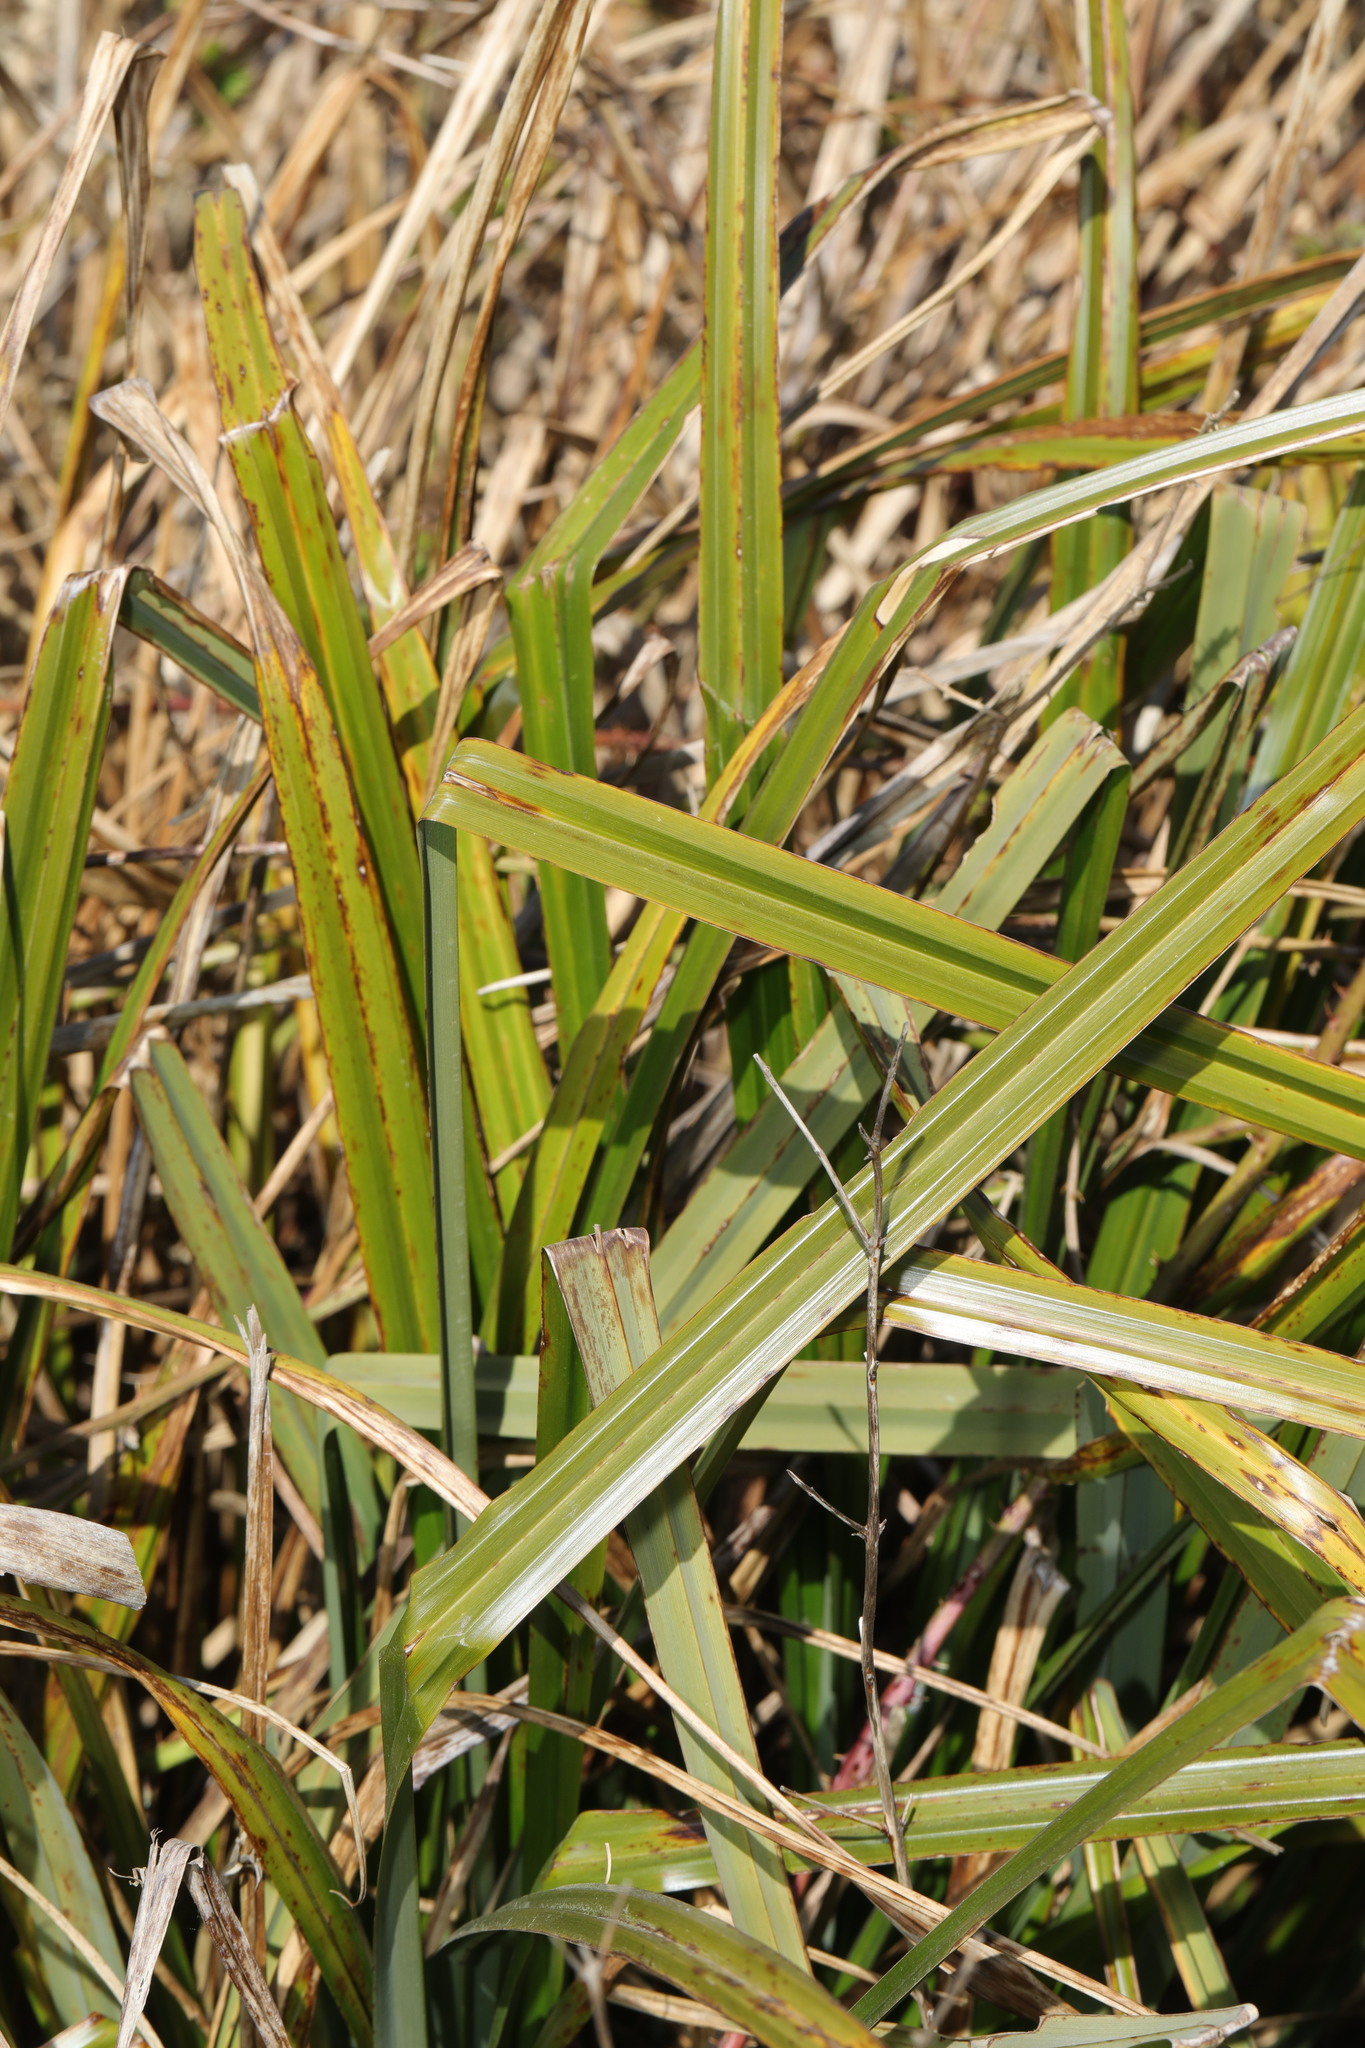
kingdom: Plantae
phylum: Tracheophyta
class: Liliopsida
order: Poales
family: Cyperaceae
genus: Carex
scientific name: Carex pendula
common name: Pendulous sedge
